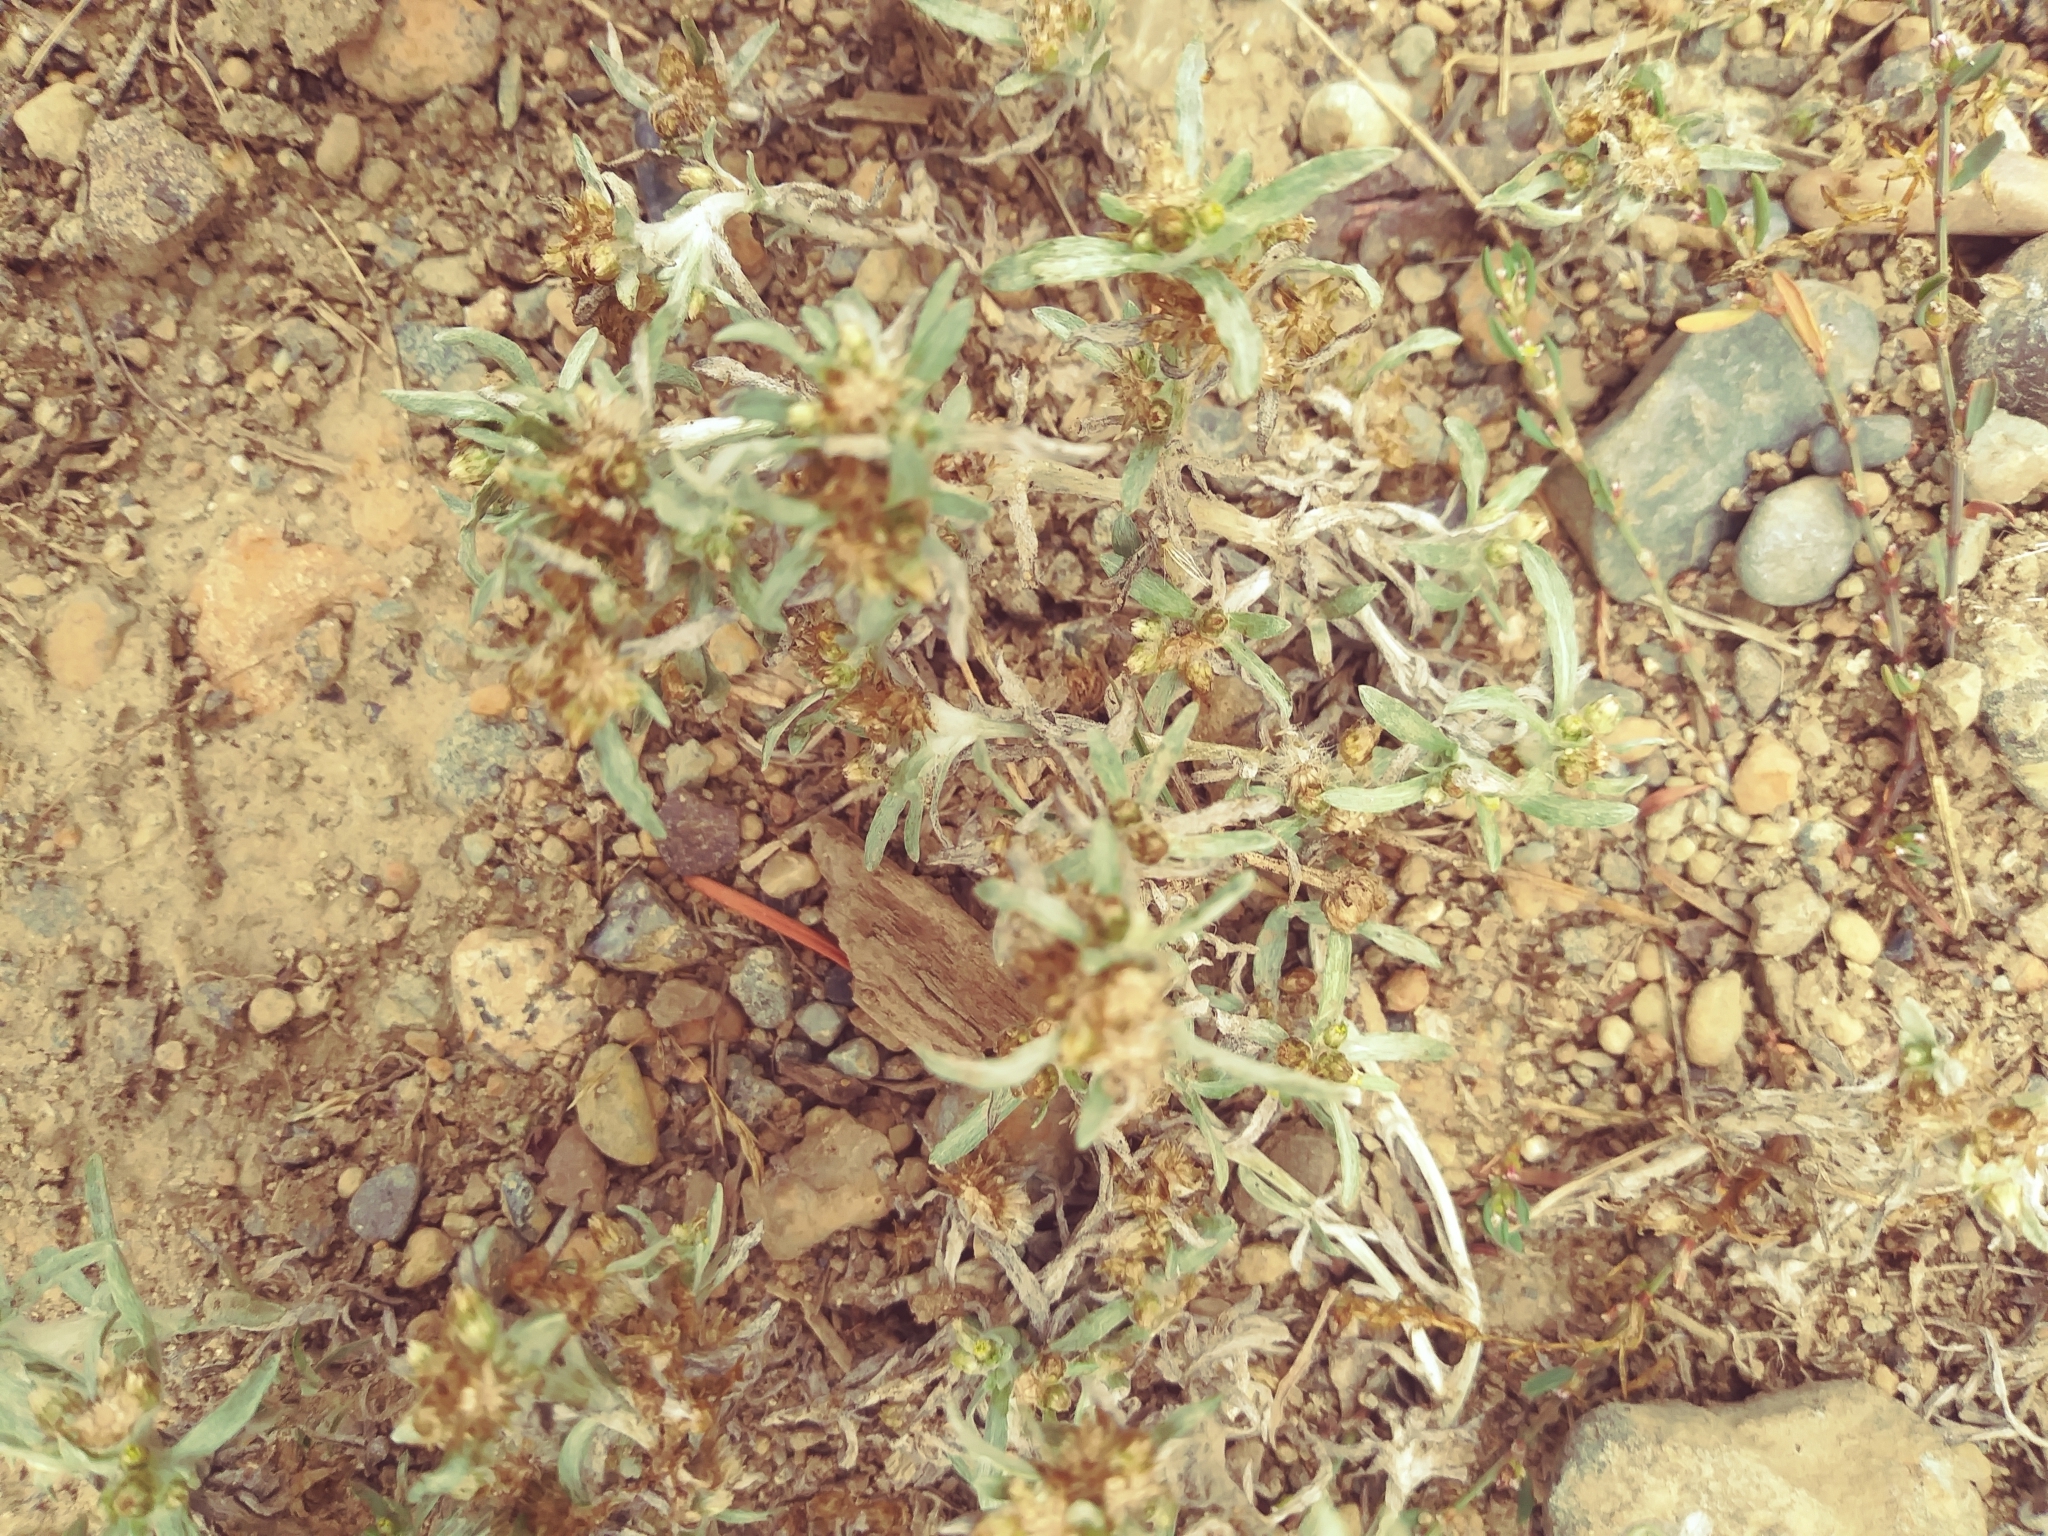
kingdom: Plantae
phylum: Tracheophyta
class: Magnoliopsida
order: Asterales
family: Asteraceae
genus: Gnaphalium
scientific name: Gnaphalium uliginosum
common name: Marsh cudweed
